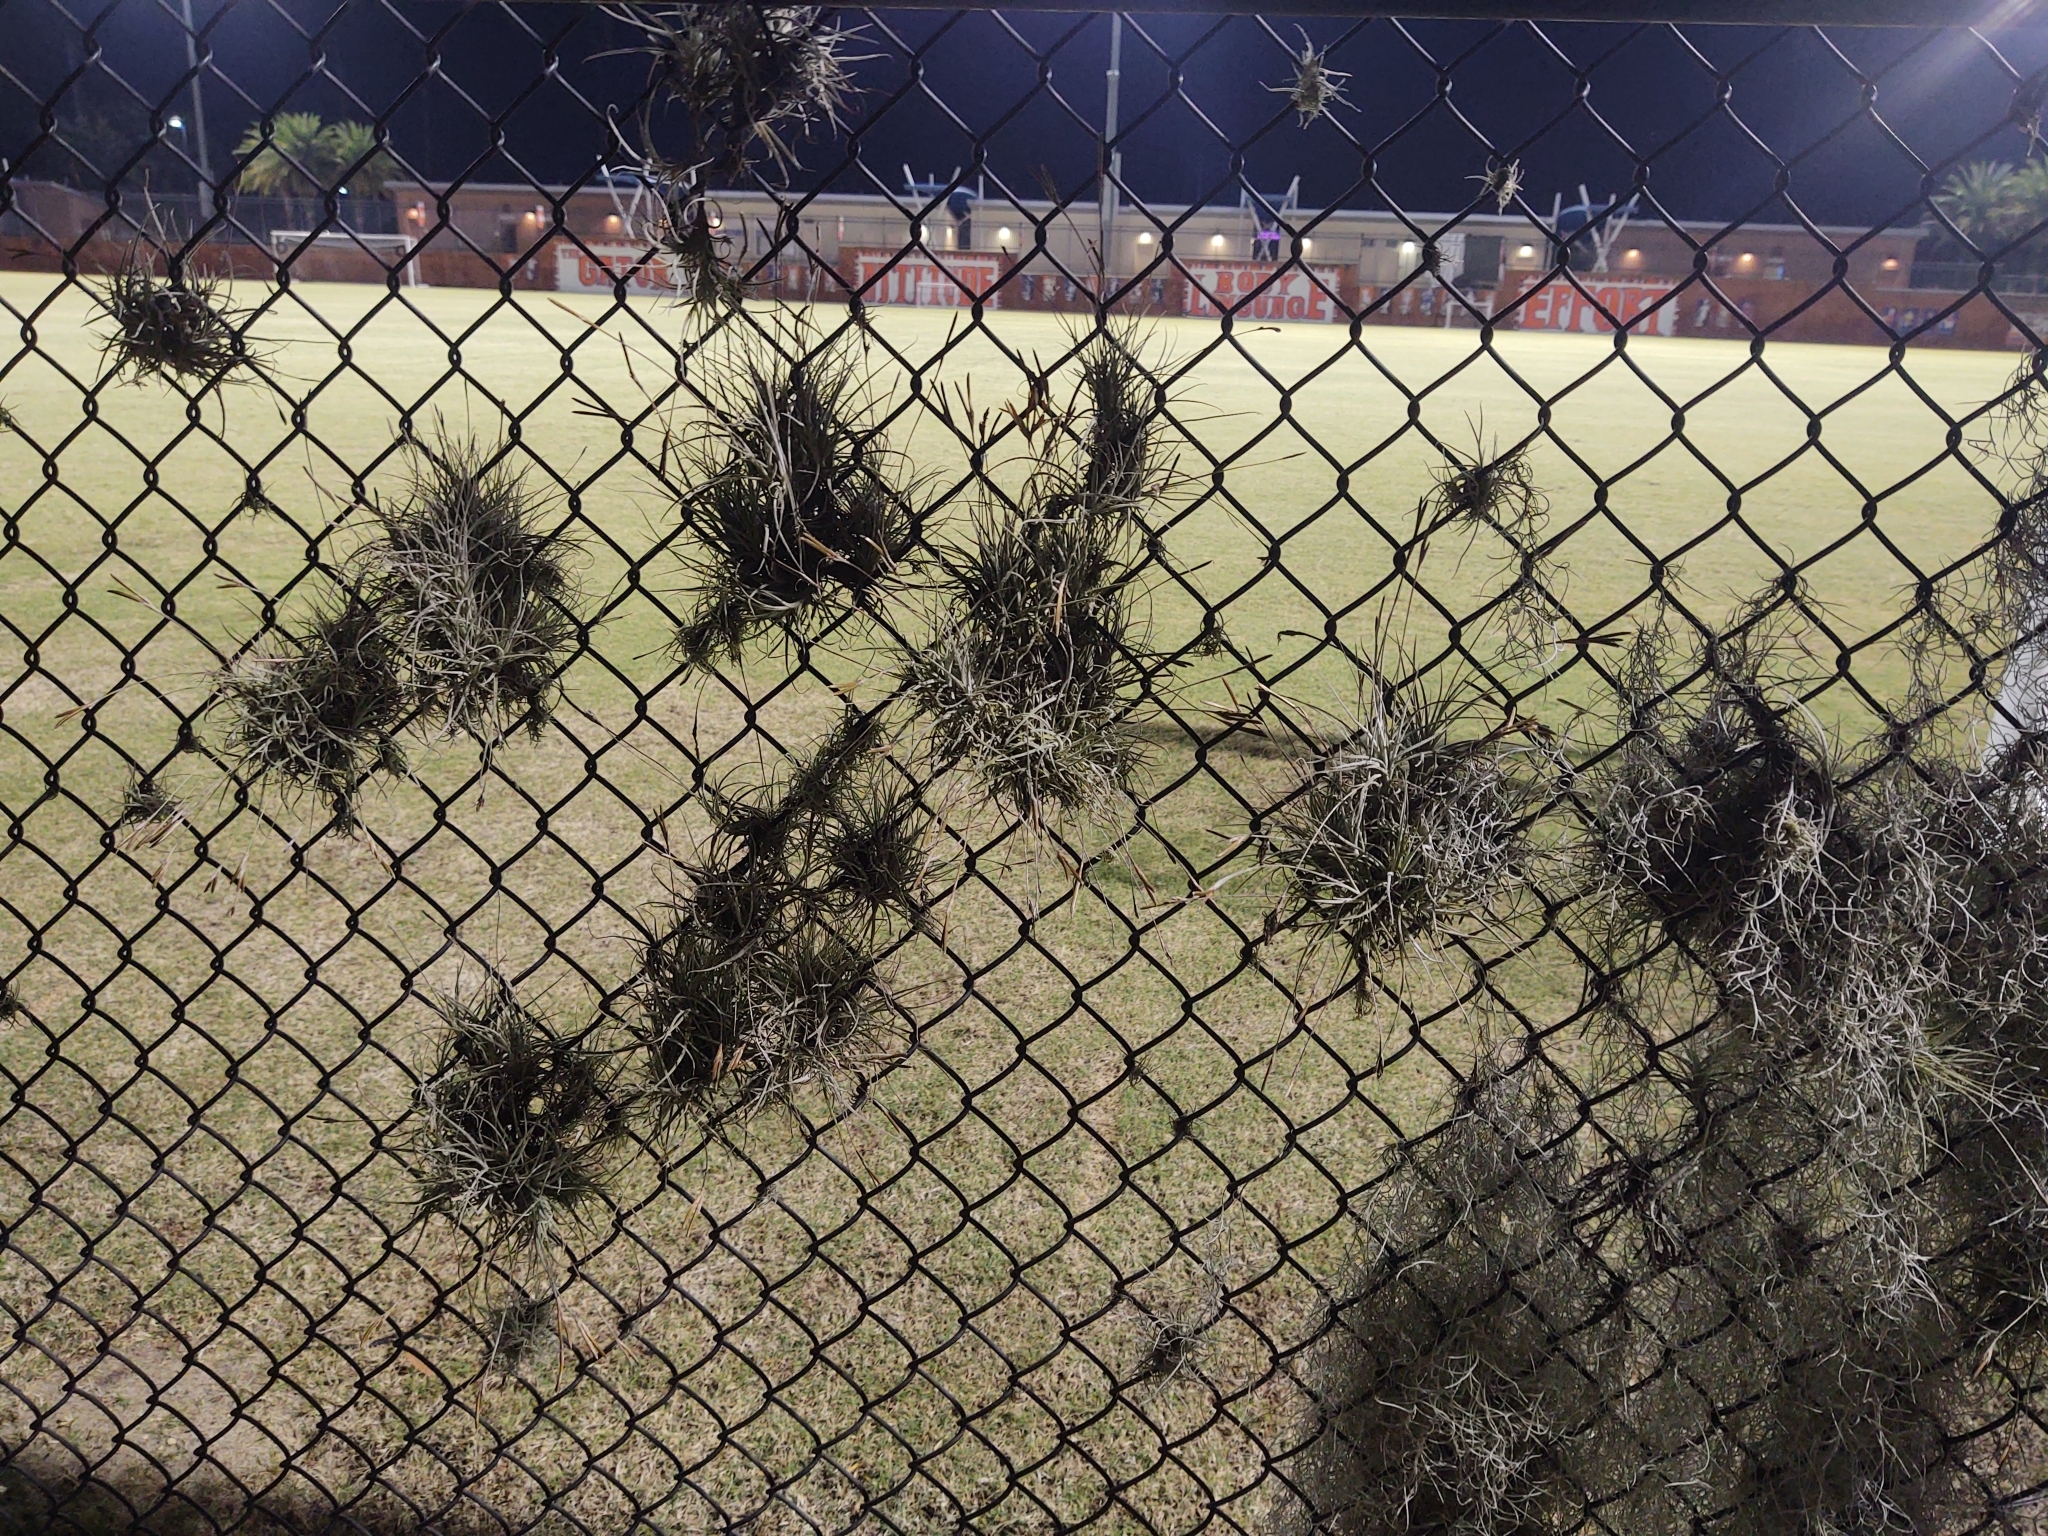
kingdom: Plantae
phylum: Tracheophyta
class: Liliopsida
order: Poales
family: Bromeliaceae
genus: Tillandsia
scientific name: Tillandsia recurvata
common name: Small ballmoss
